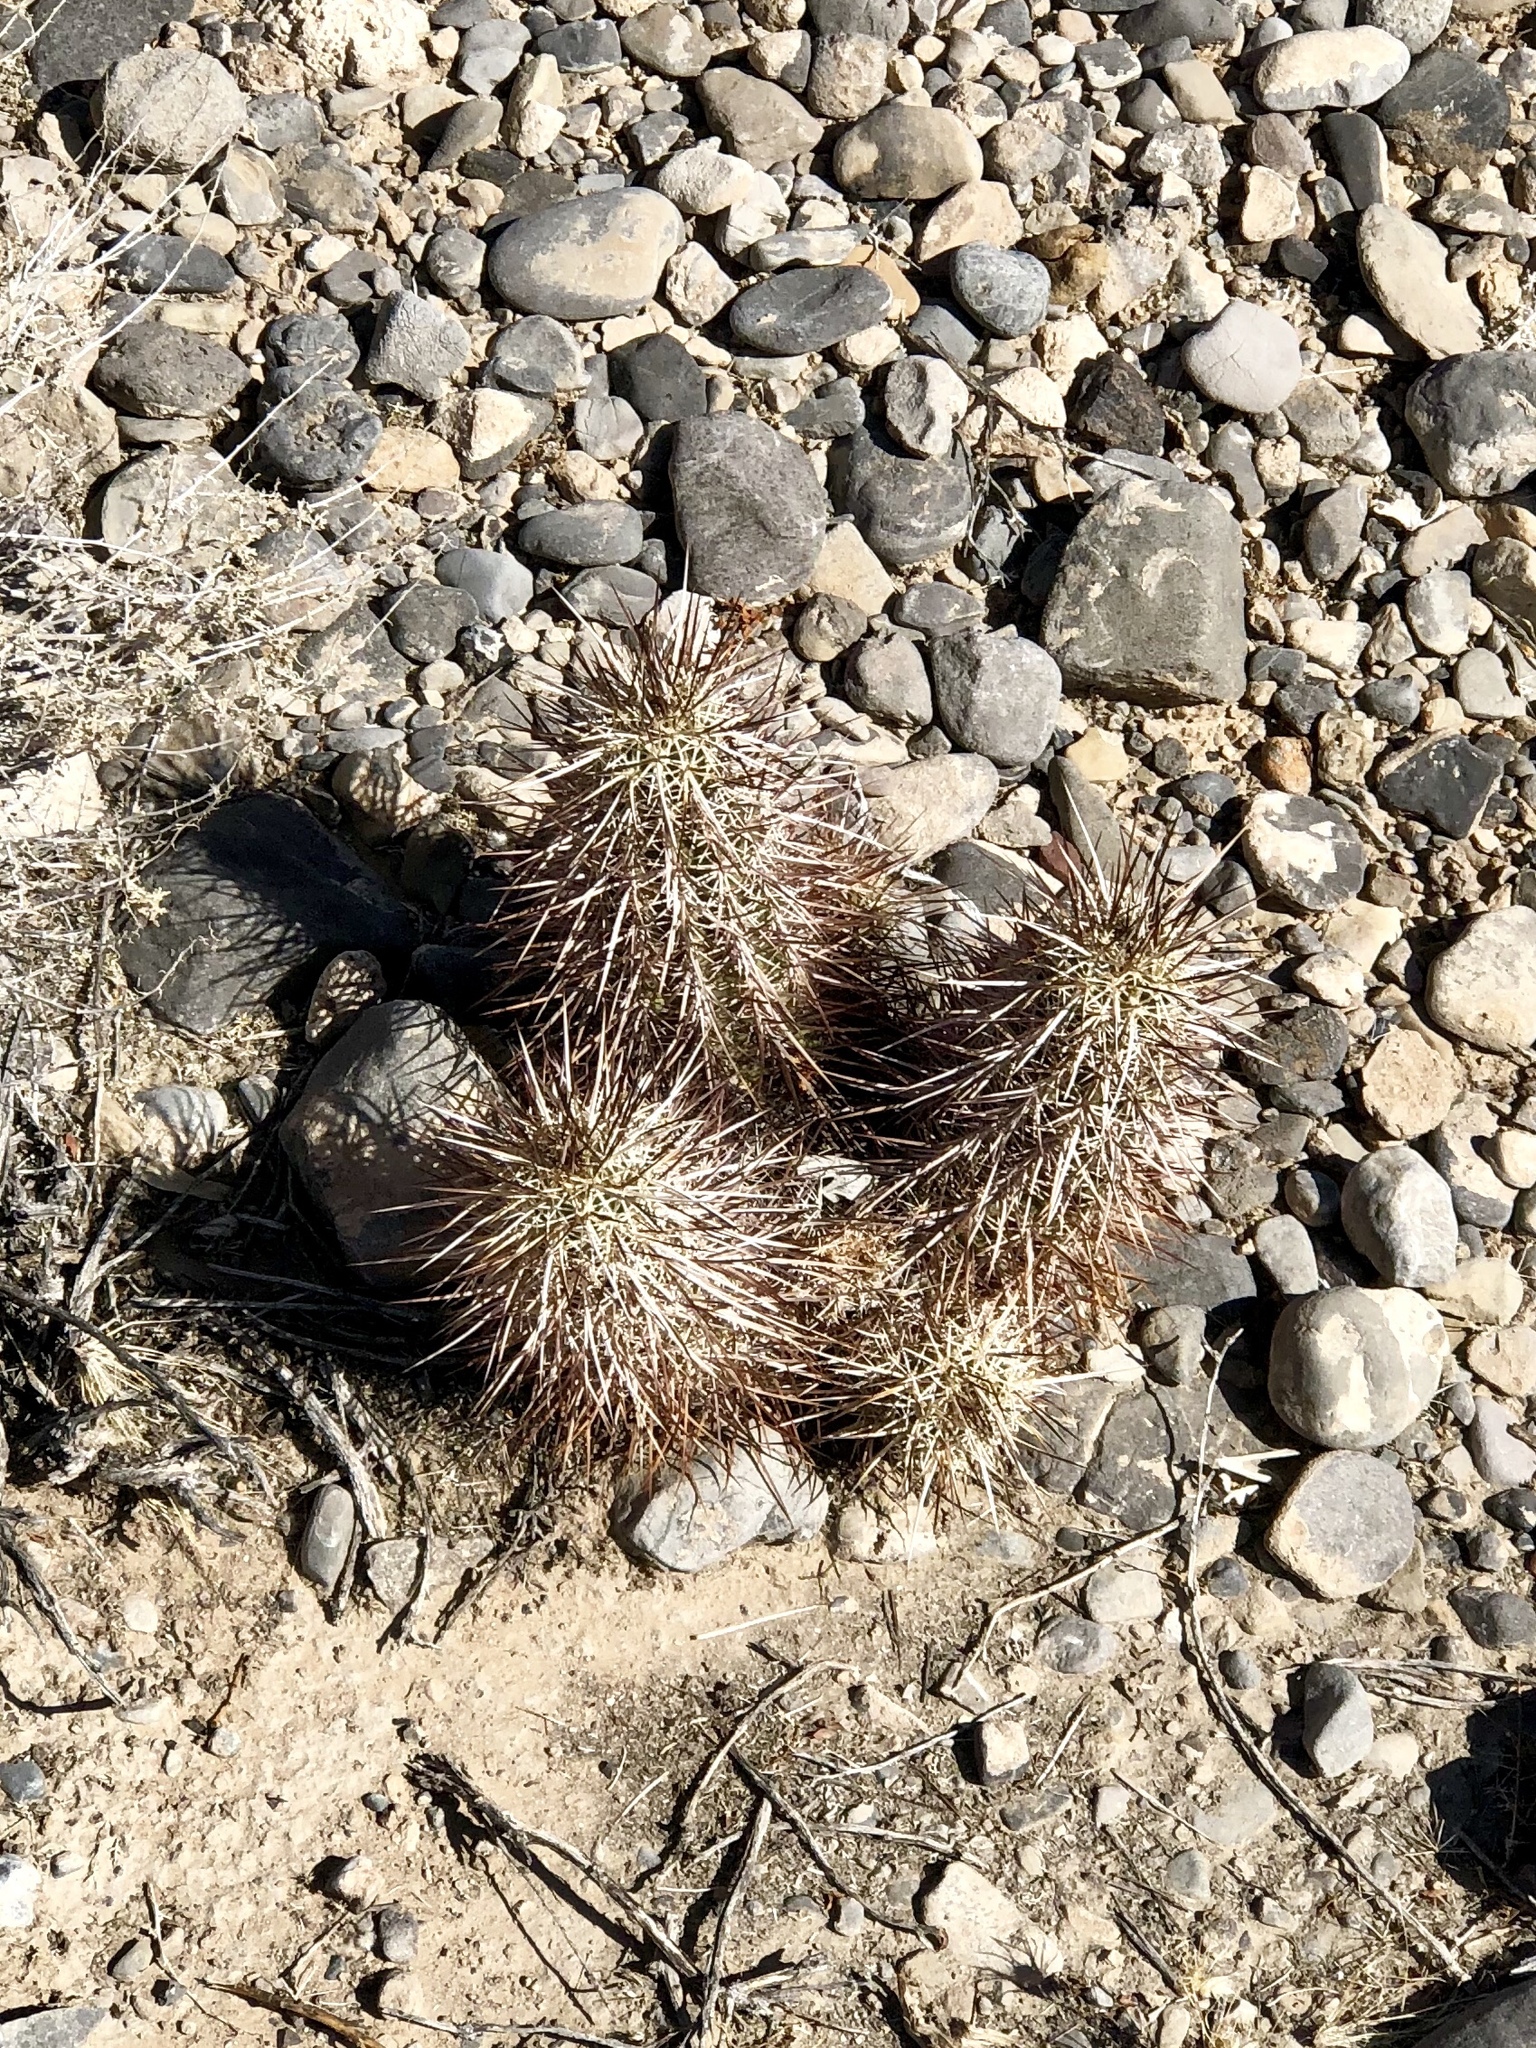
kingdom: Plantae
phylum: Tracheophyta
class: Magnoliopsida
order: Caryophyllales
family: Cactaceae
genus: Echinocereus
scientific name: Echinocereus engelmannii
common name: Engelmann's hedgehog cactus
